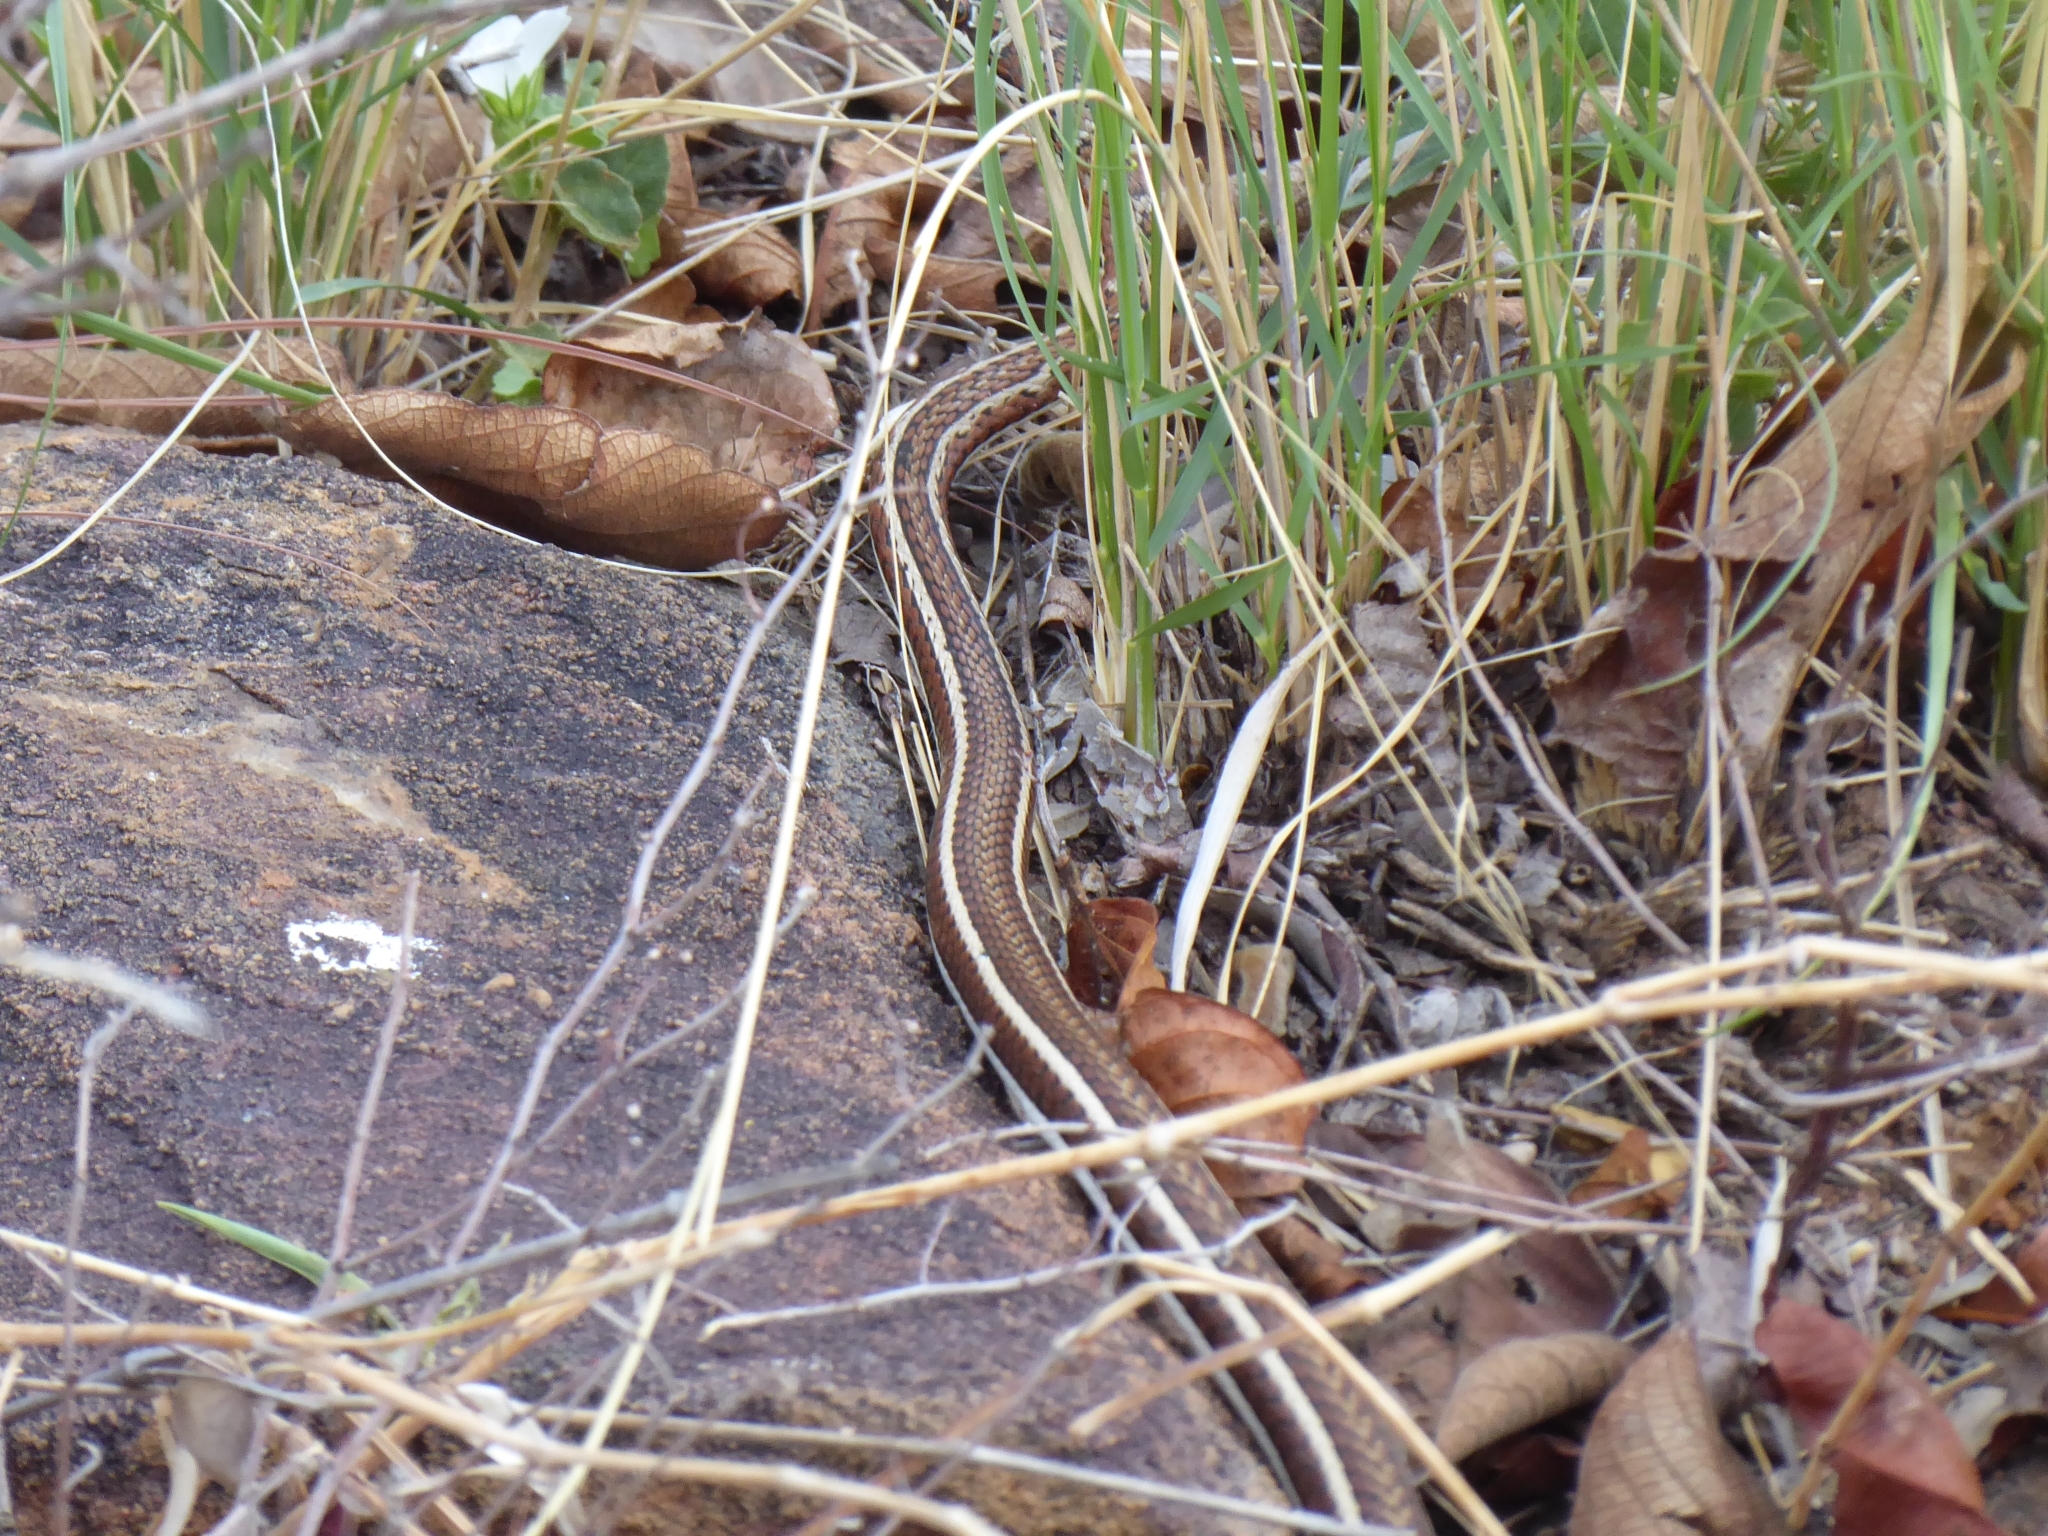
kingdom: Animalia
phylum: Chordata
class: Squamata
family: Psammophiidae
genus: Psammophis
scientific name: Psammophis subtaeniatus
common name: Stripe-bellied sand snake
